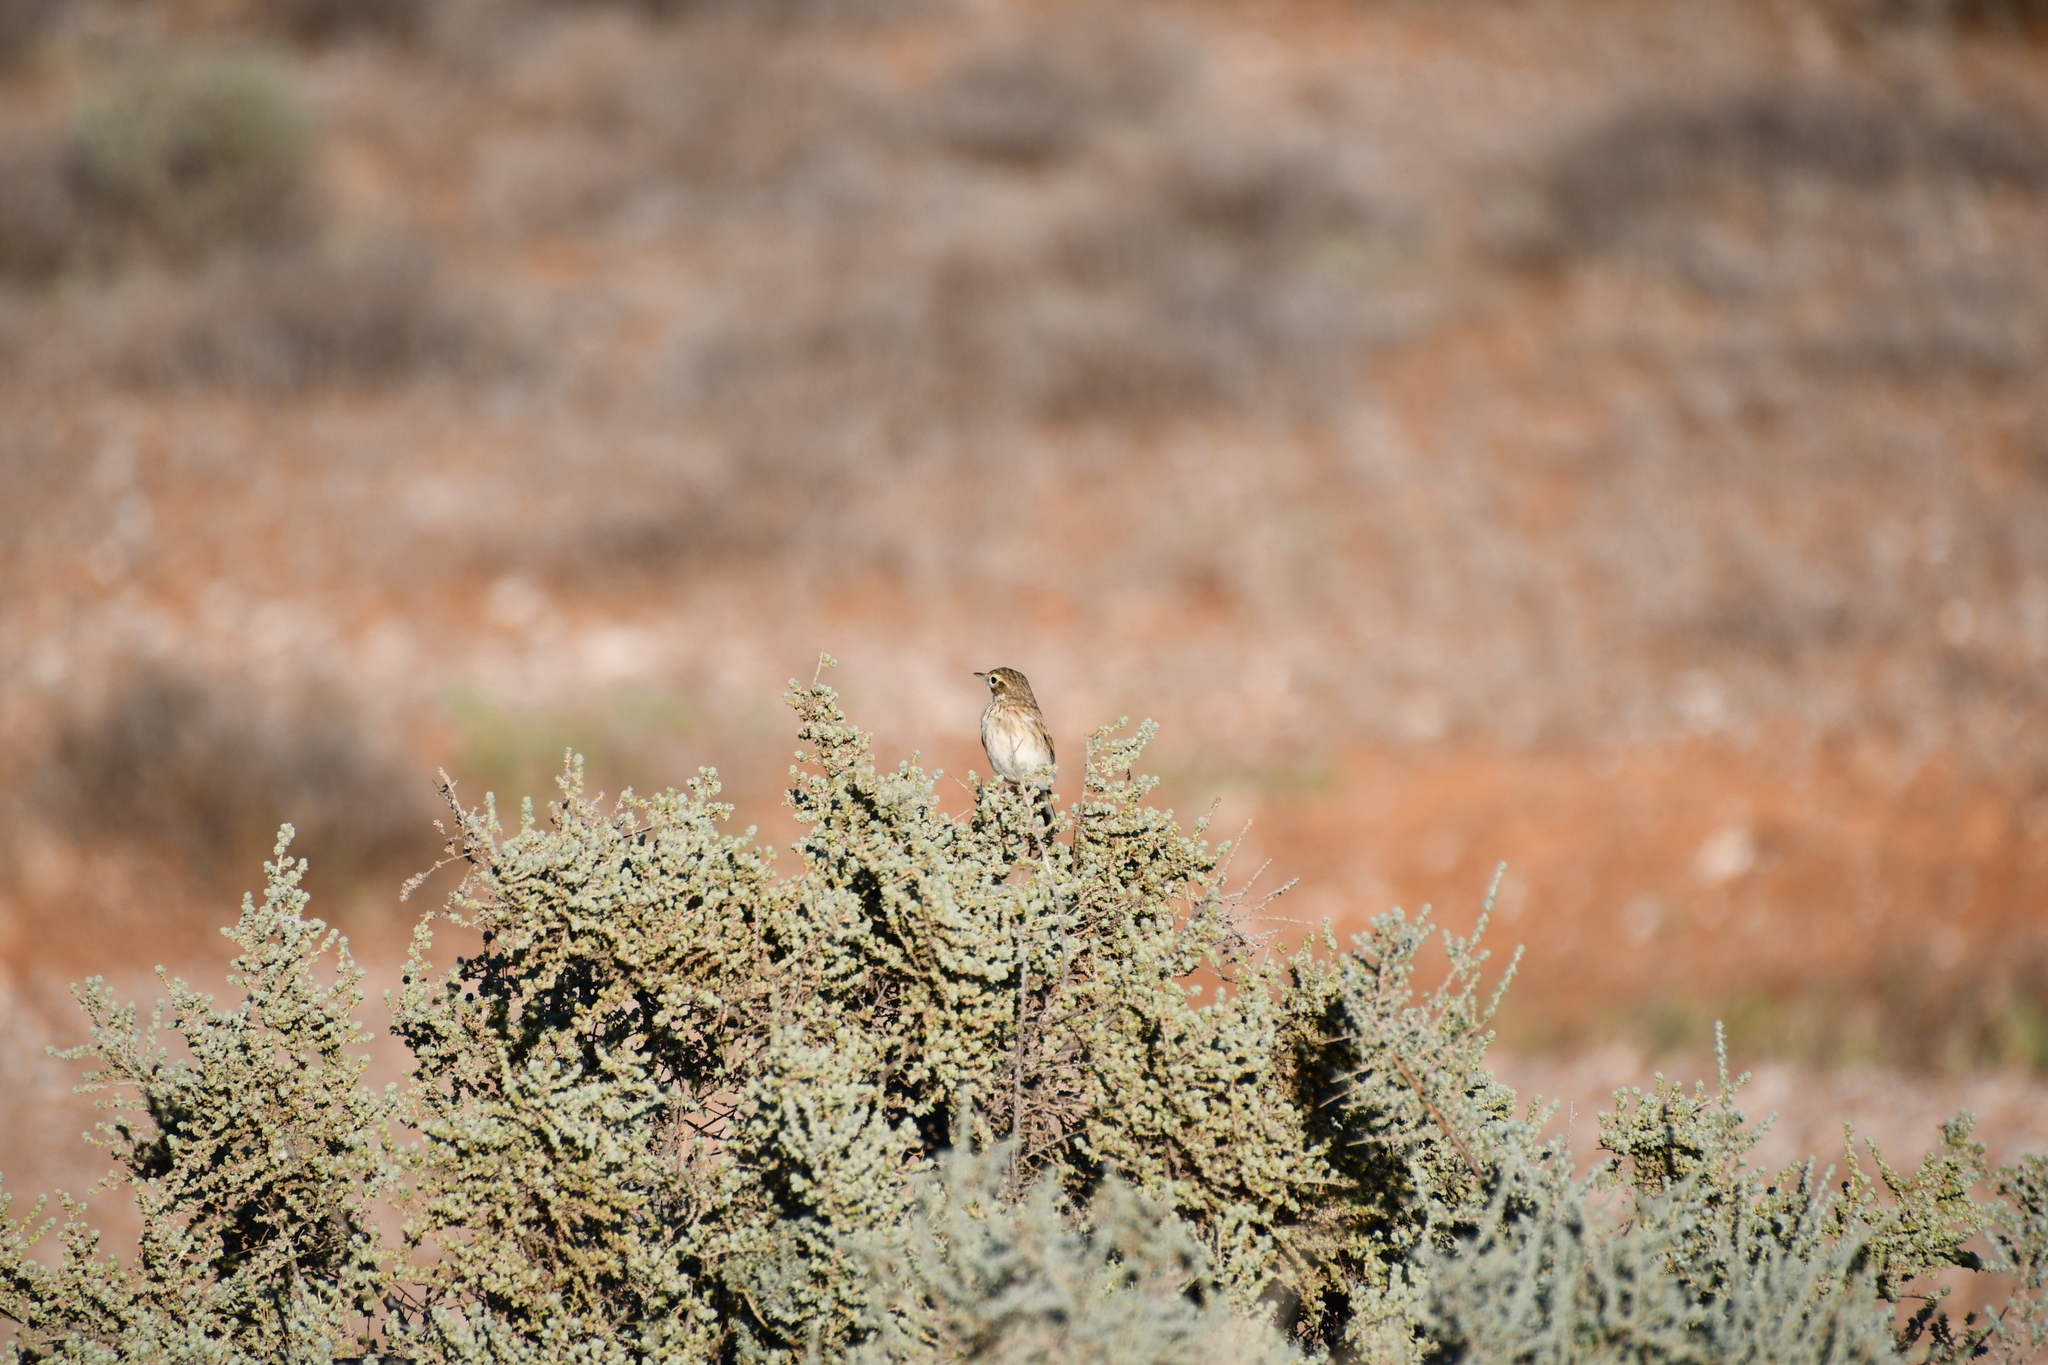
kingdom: Animalia
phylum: Chordata
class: Aves
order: Passeriformes
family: Motacillidae
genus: Anthus
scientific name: Anthus australis
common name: Australian pipit
